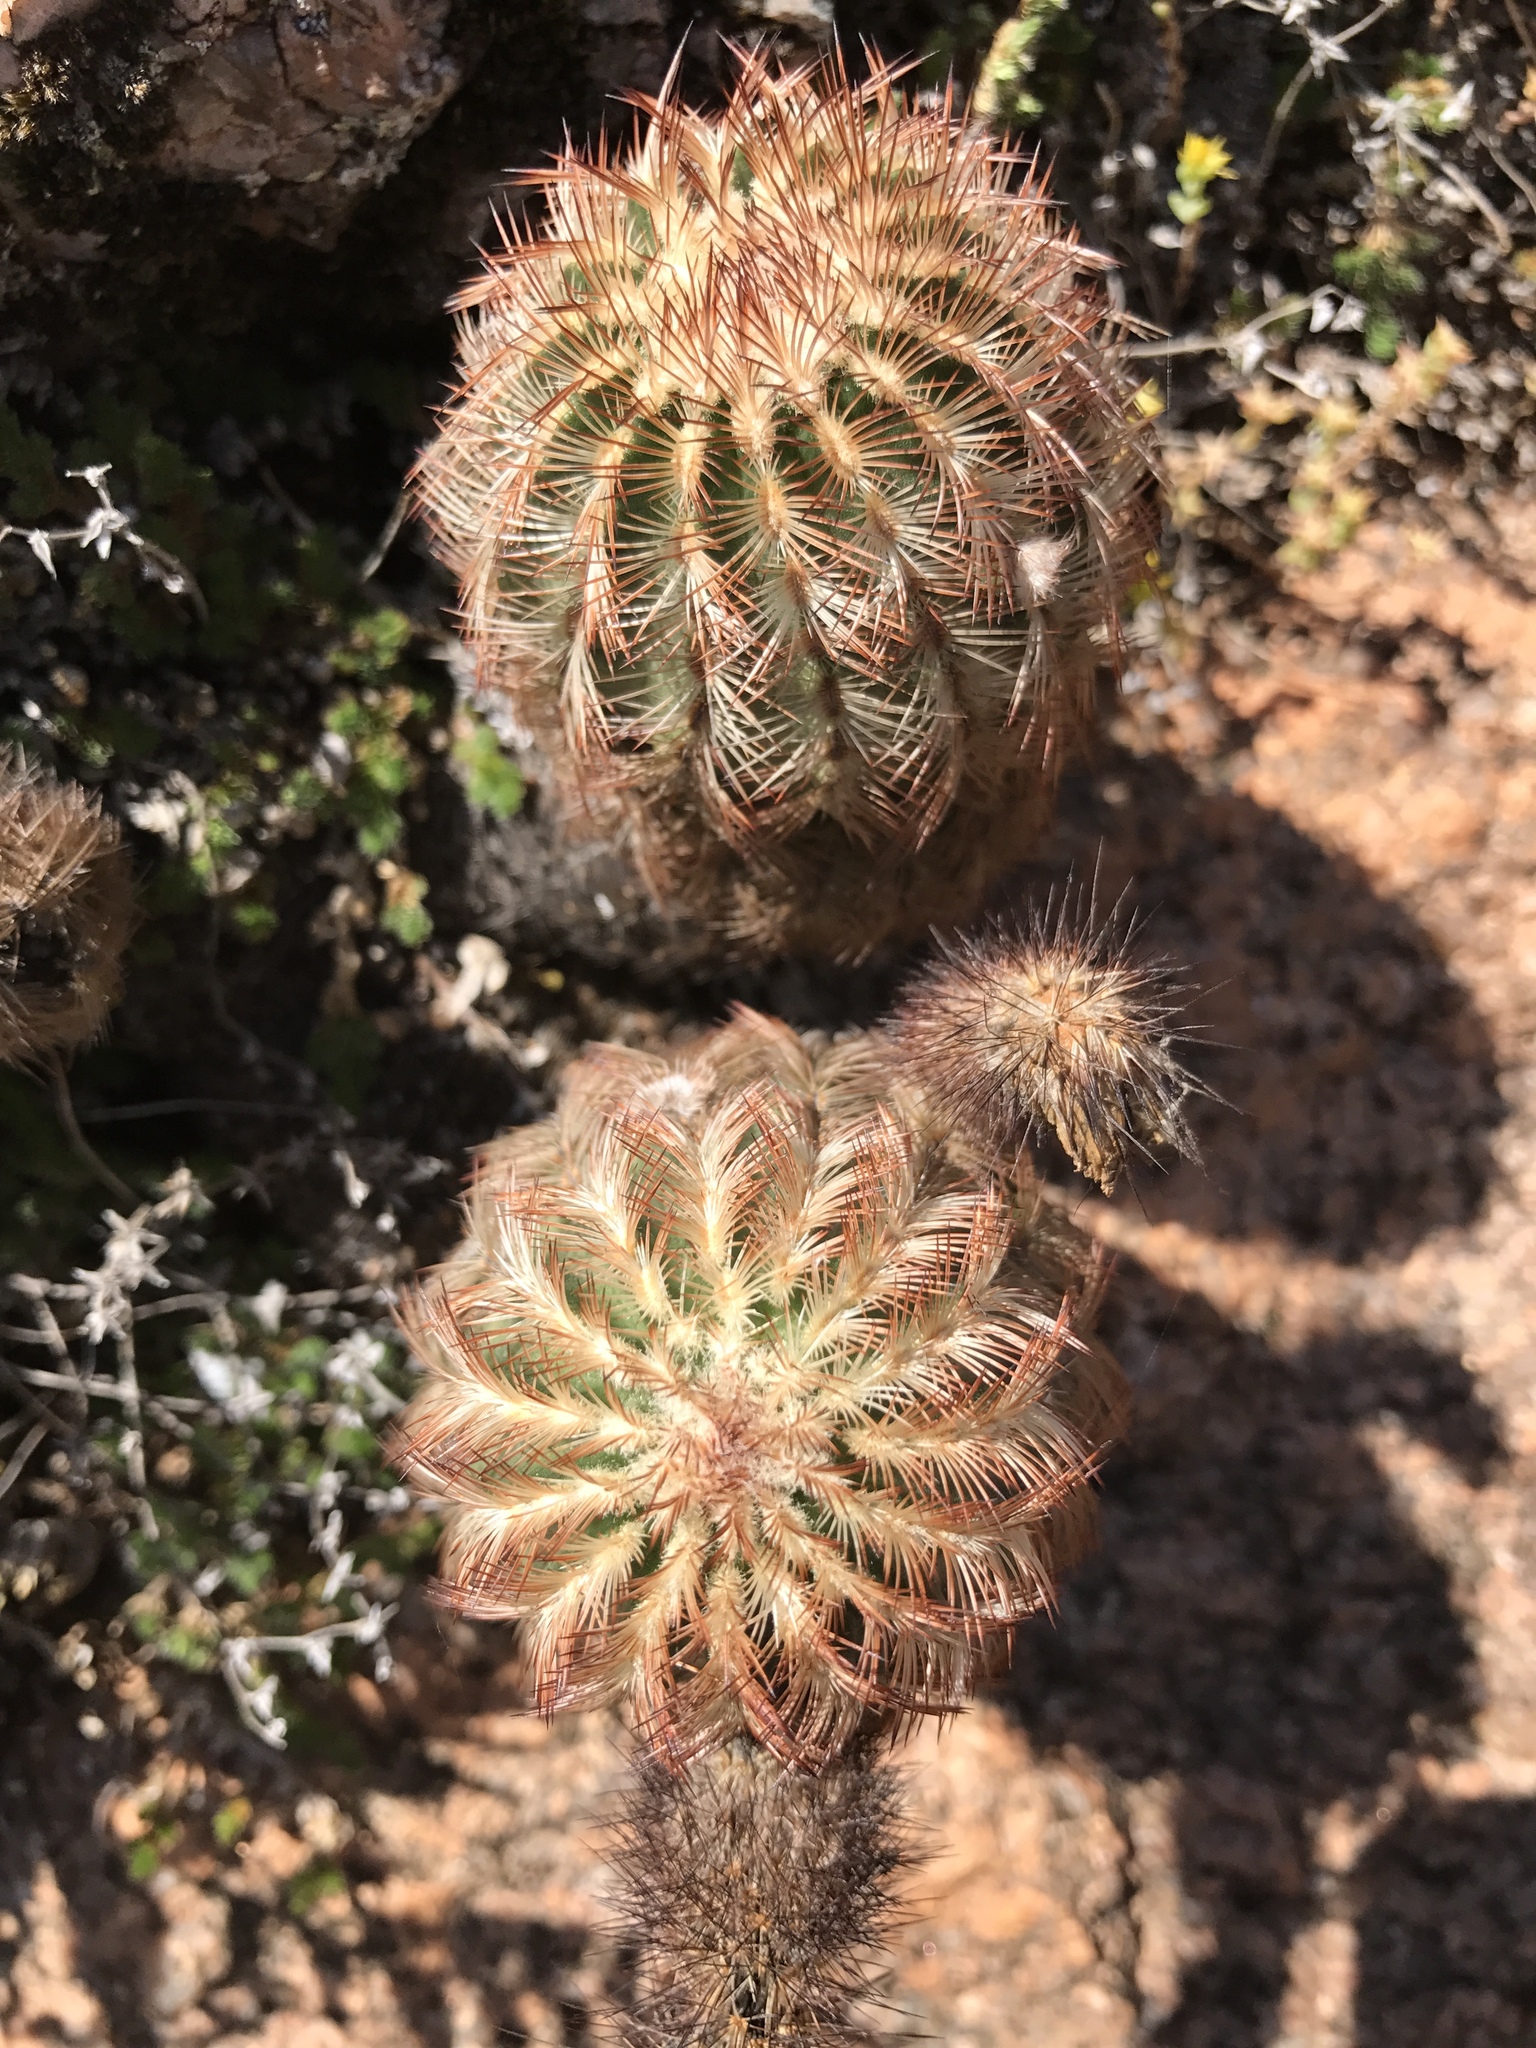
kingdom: Plantae
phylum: Tracheophyta
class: Magnoliopsida
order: Caryophyllales
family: Cactaceae
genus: Echinocereus
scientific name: Echinocereus reichenbachii
